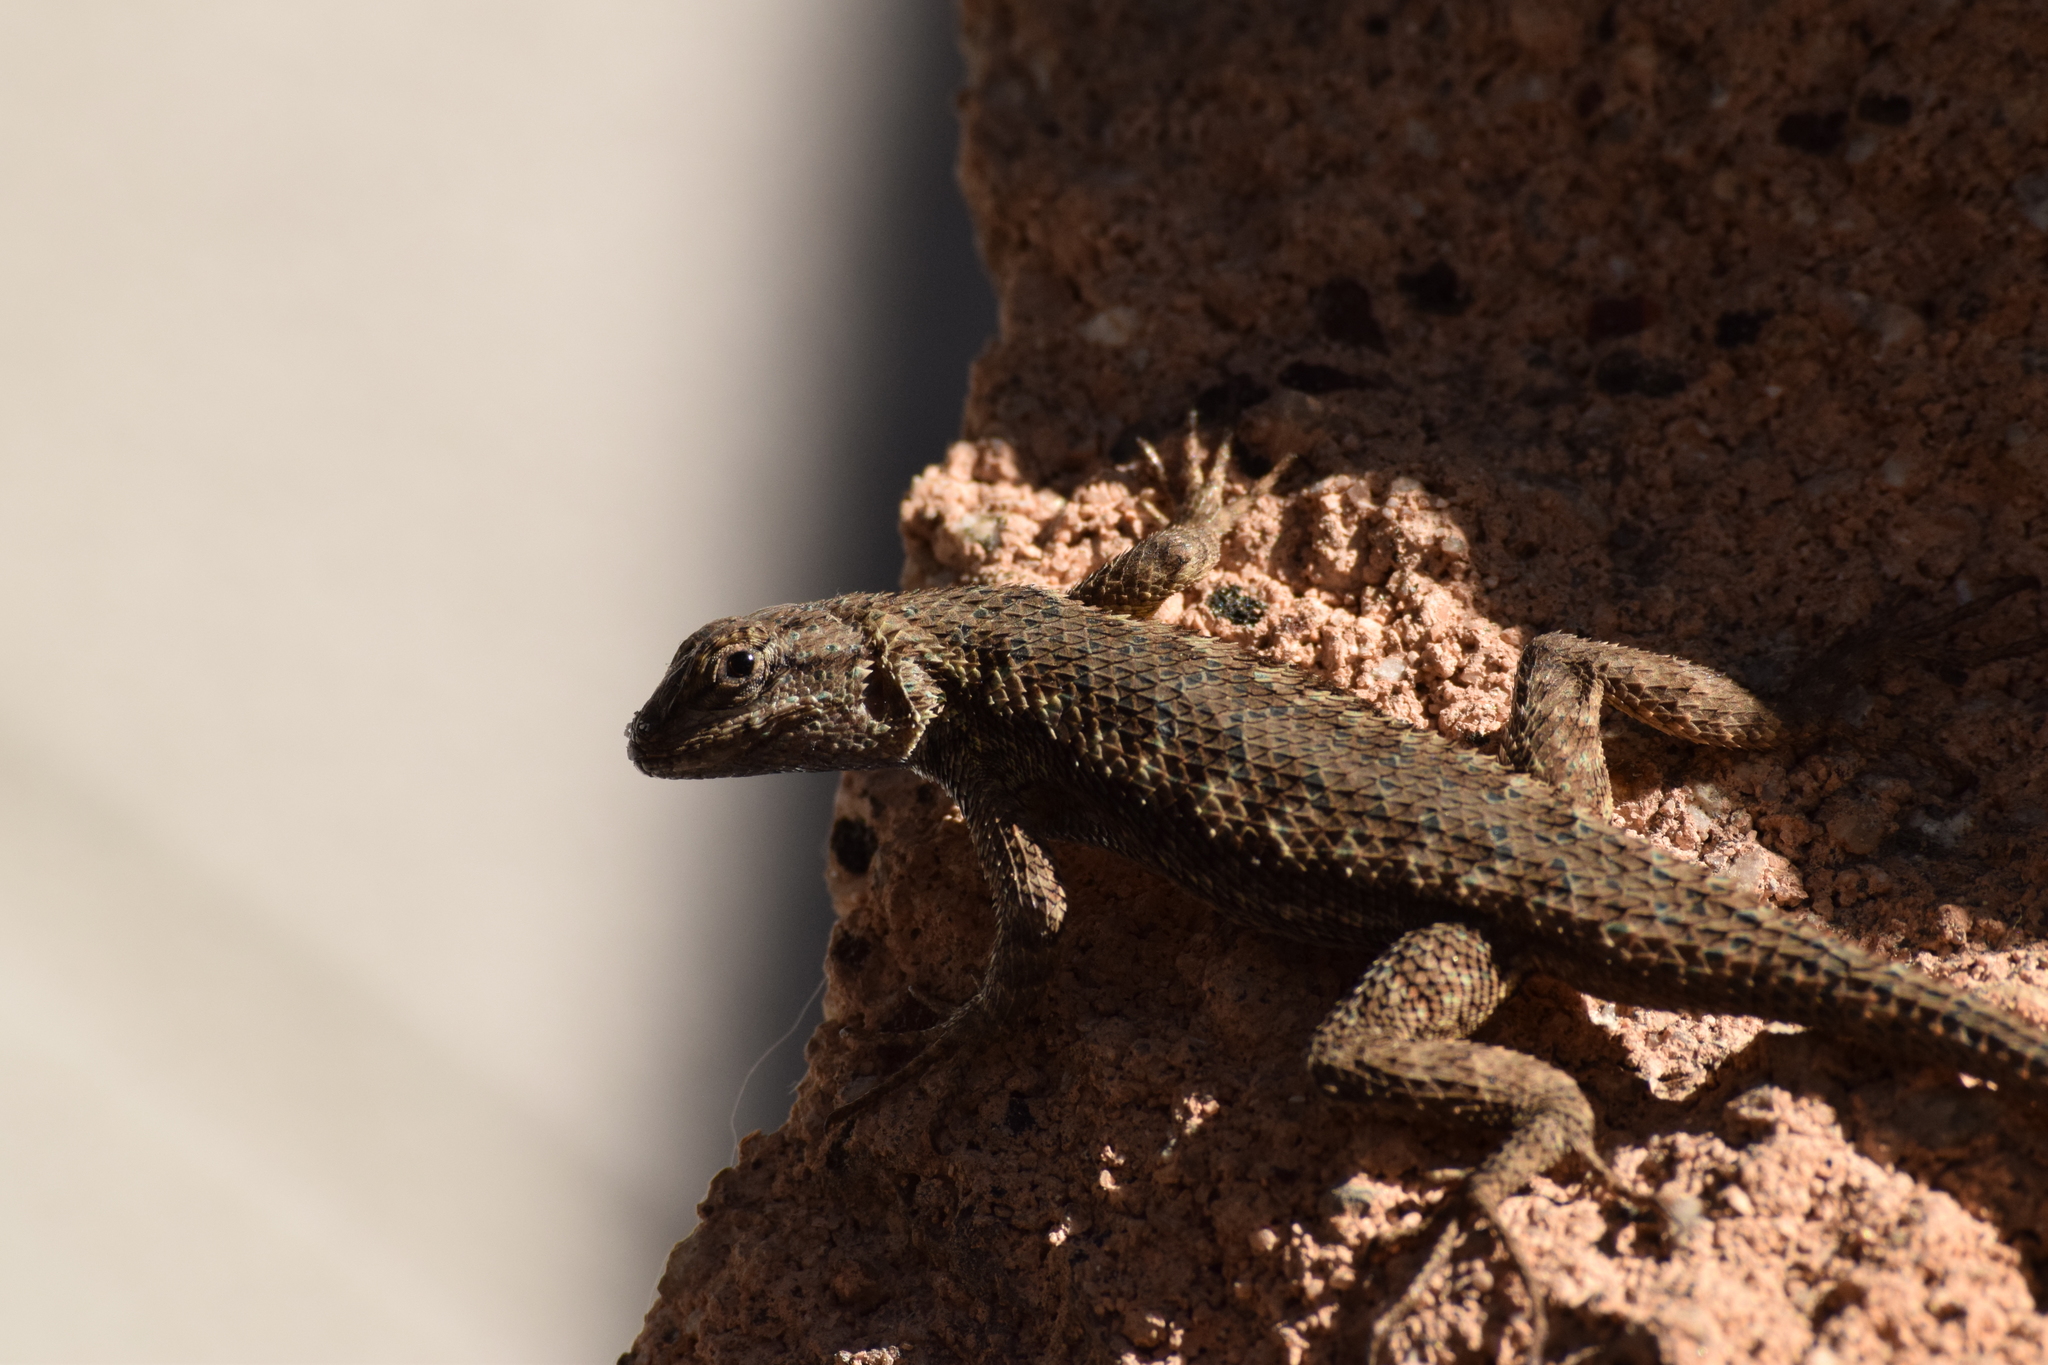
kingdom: Animalia
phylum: Chordata
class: Squamata
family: Phrynosomatidae
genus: Sceloporus
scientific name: Sceloporus occidentalis
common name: Western fence lizard
